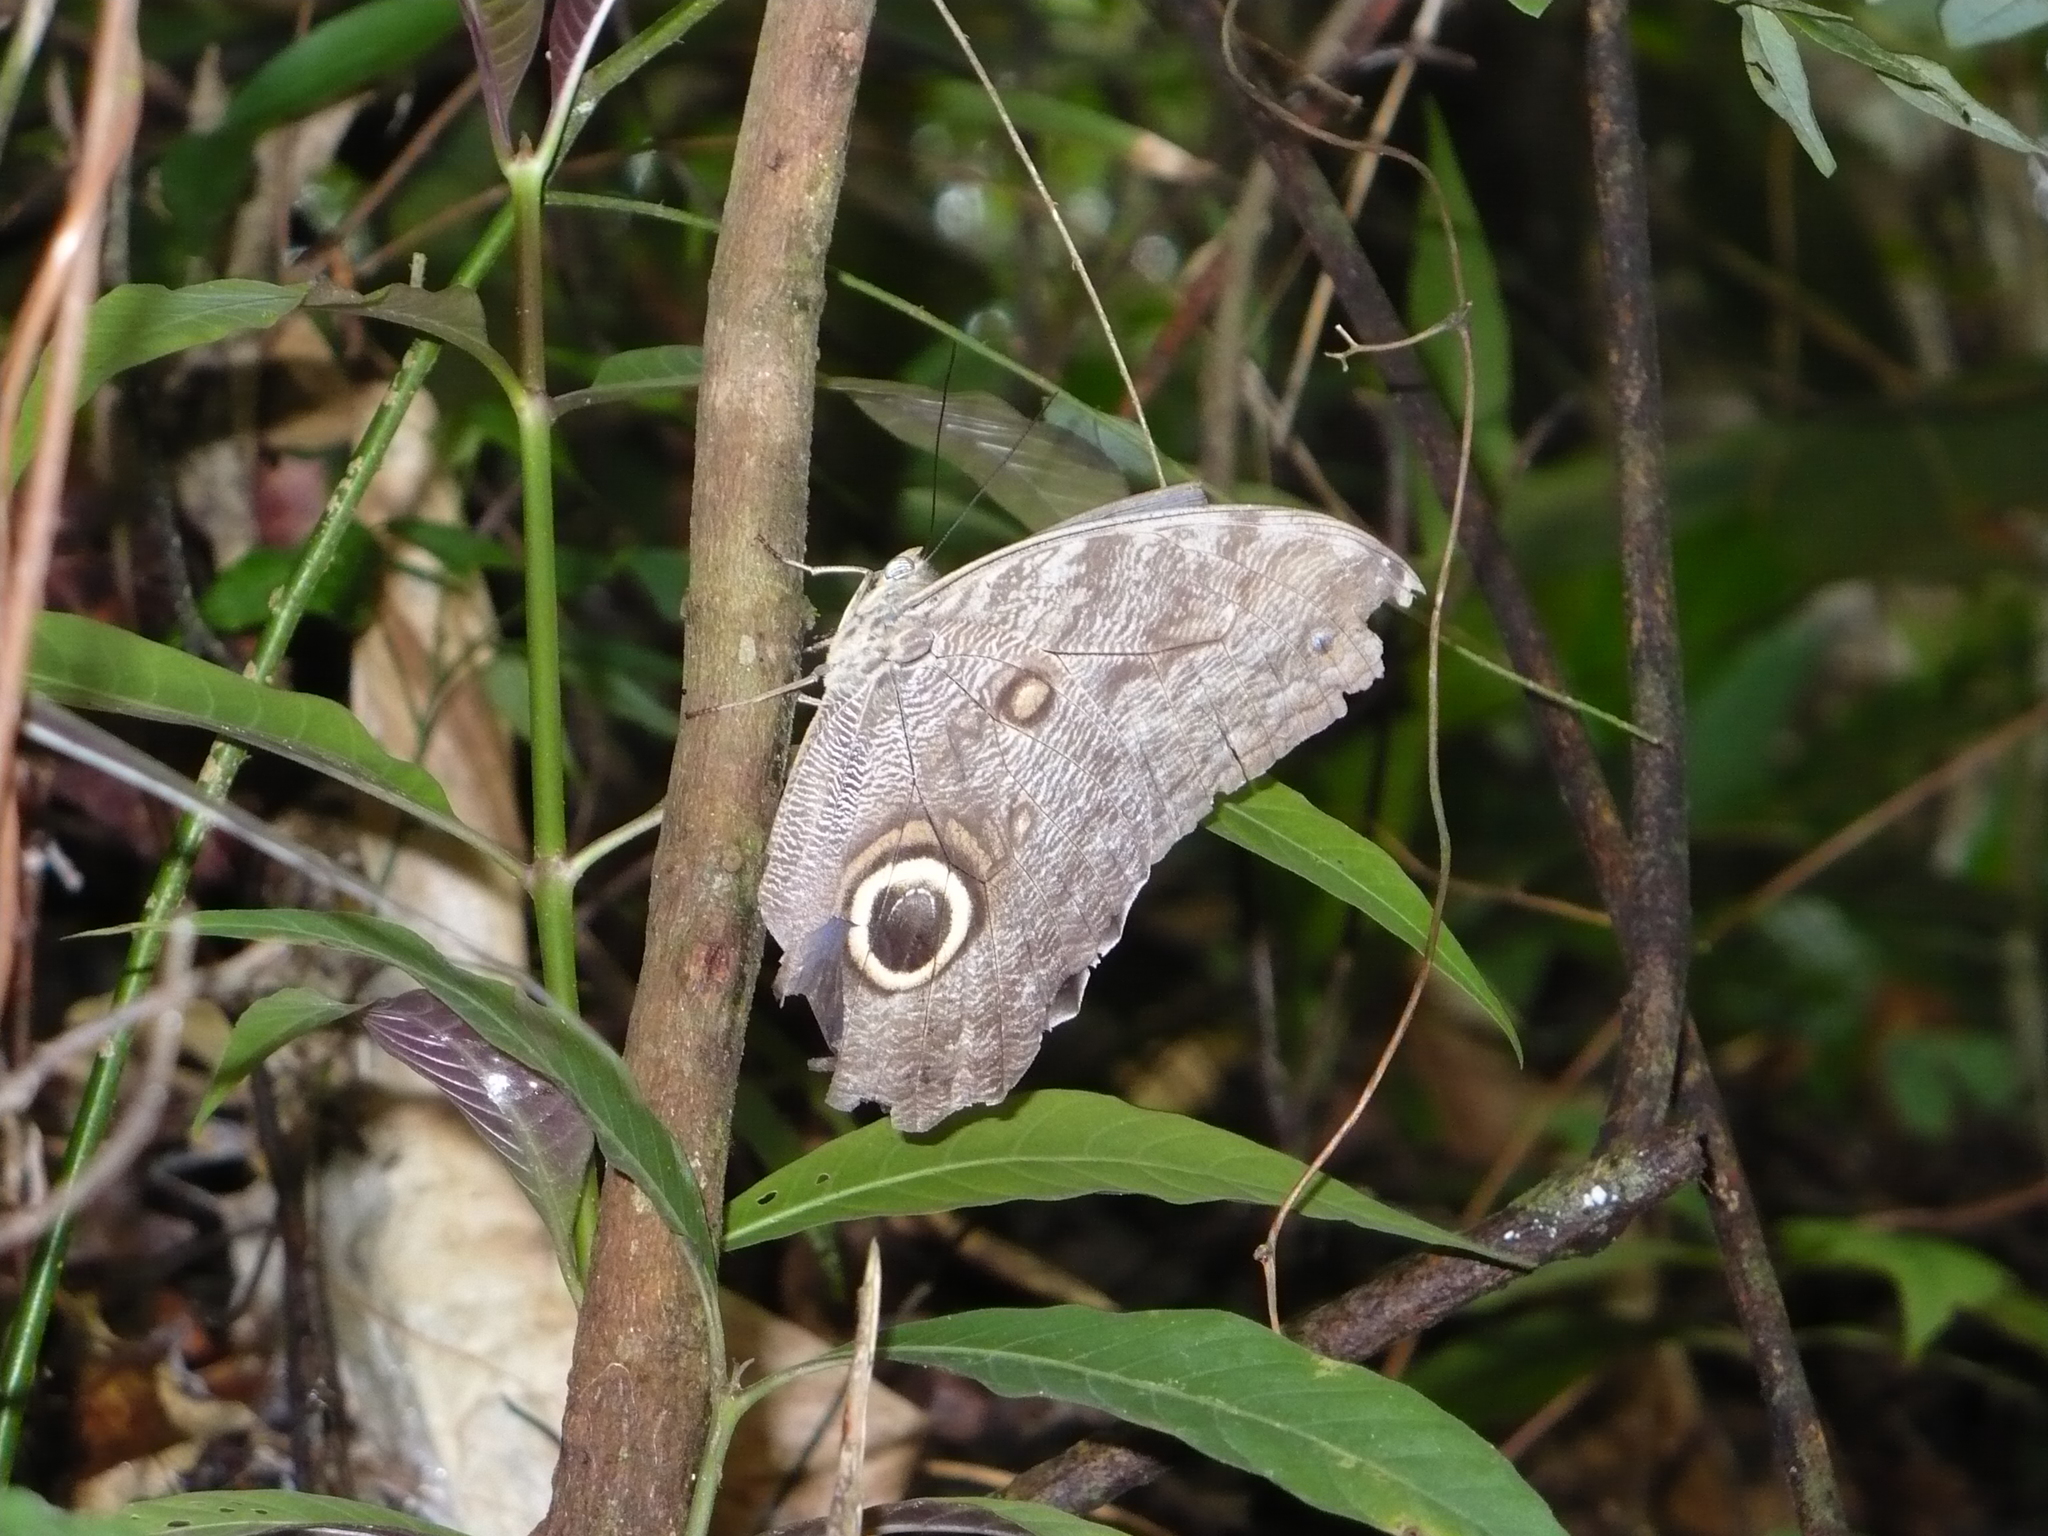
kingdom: Animalia
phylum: Arthropoda
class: Insecta
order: Lepidoptera
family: Nymphalidae
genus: Caligo
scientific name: Caligo brasiliensis
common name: Dark owl-butterfly
